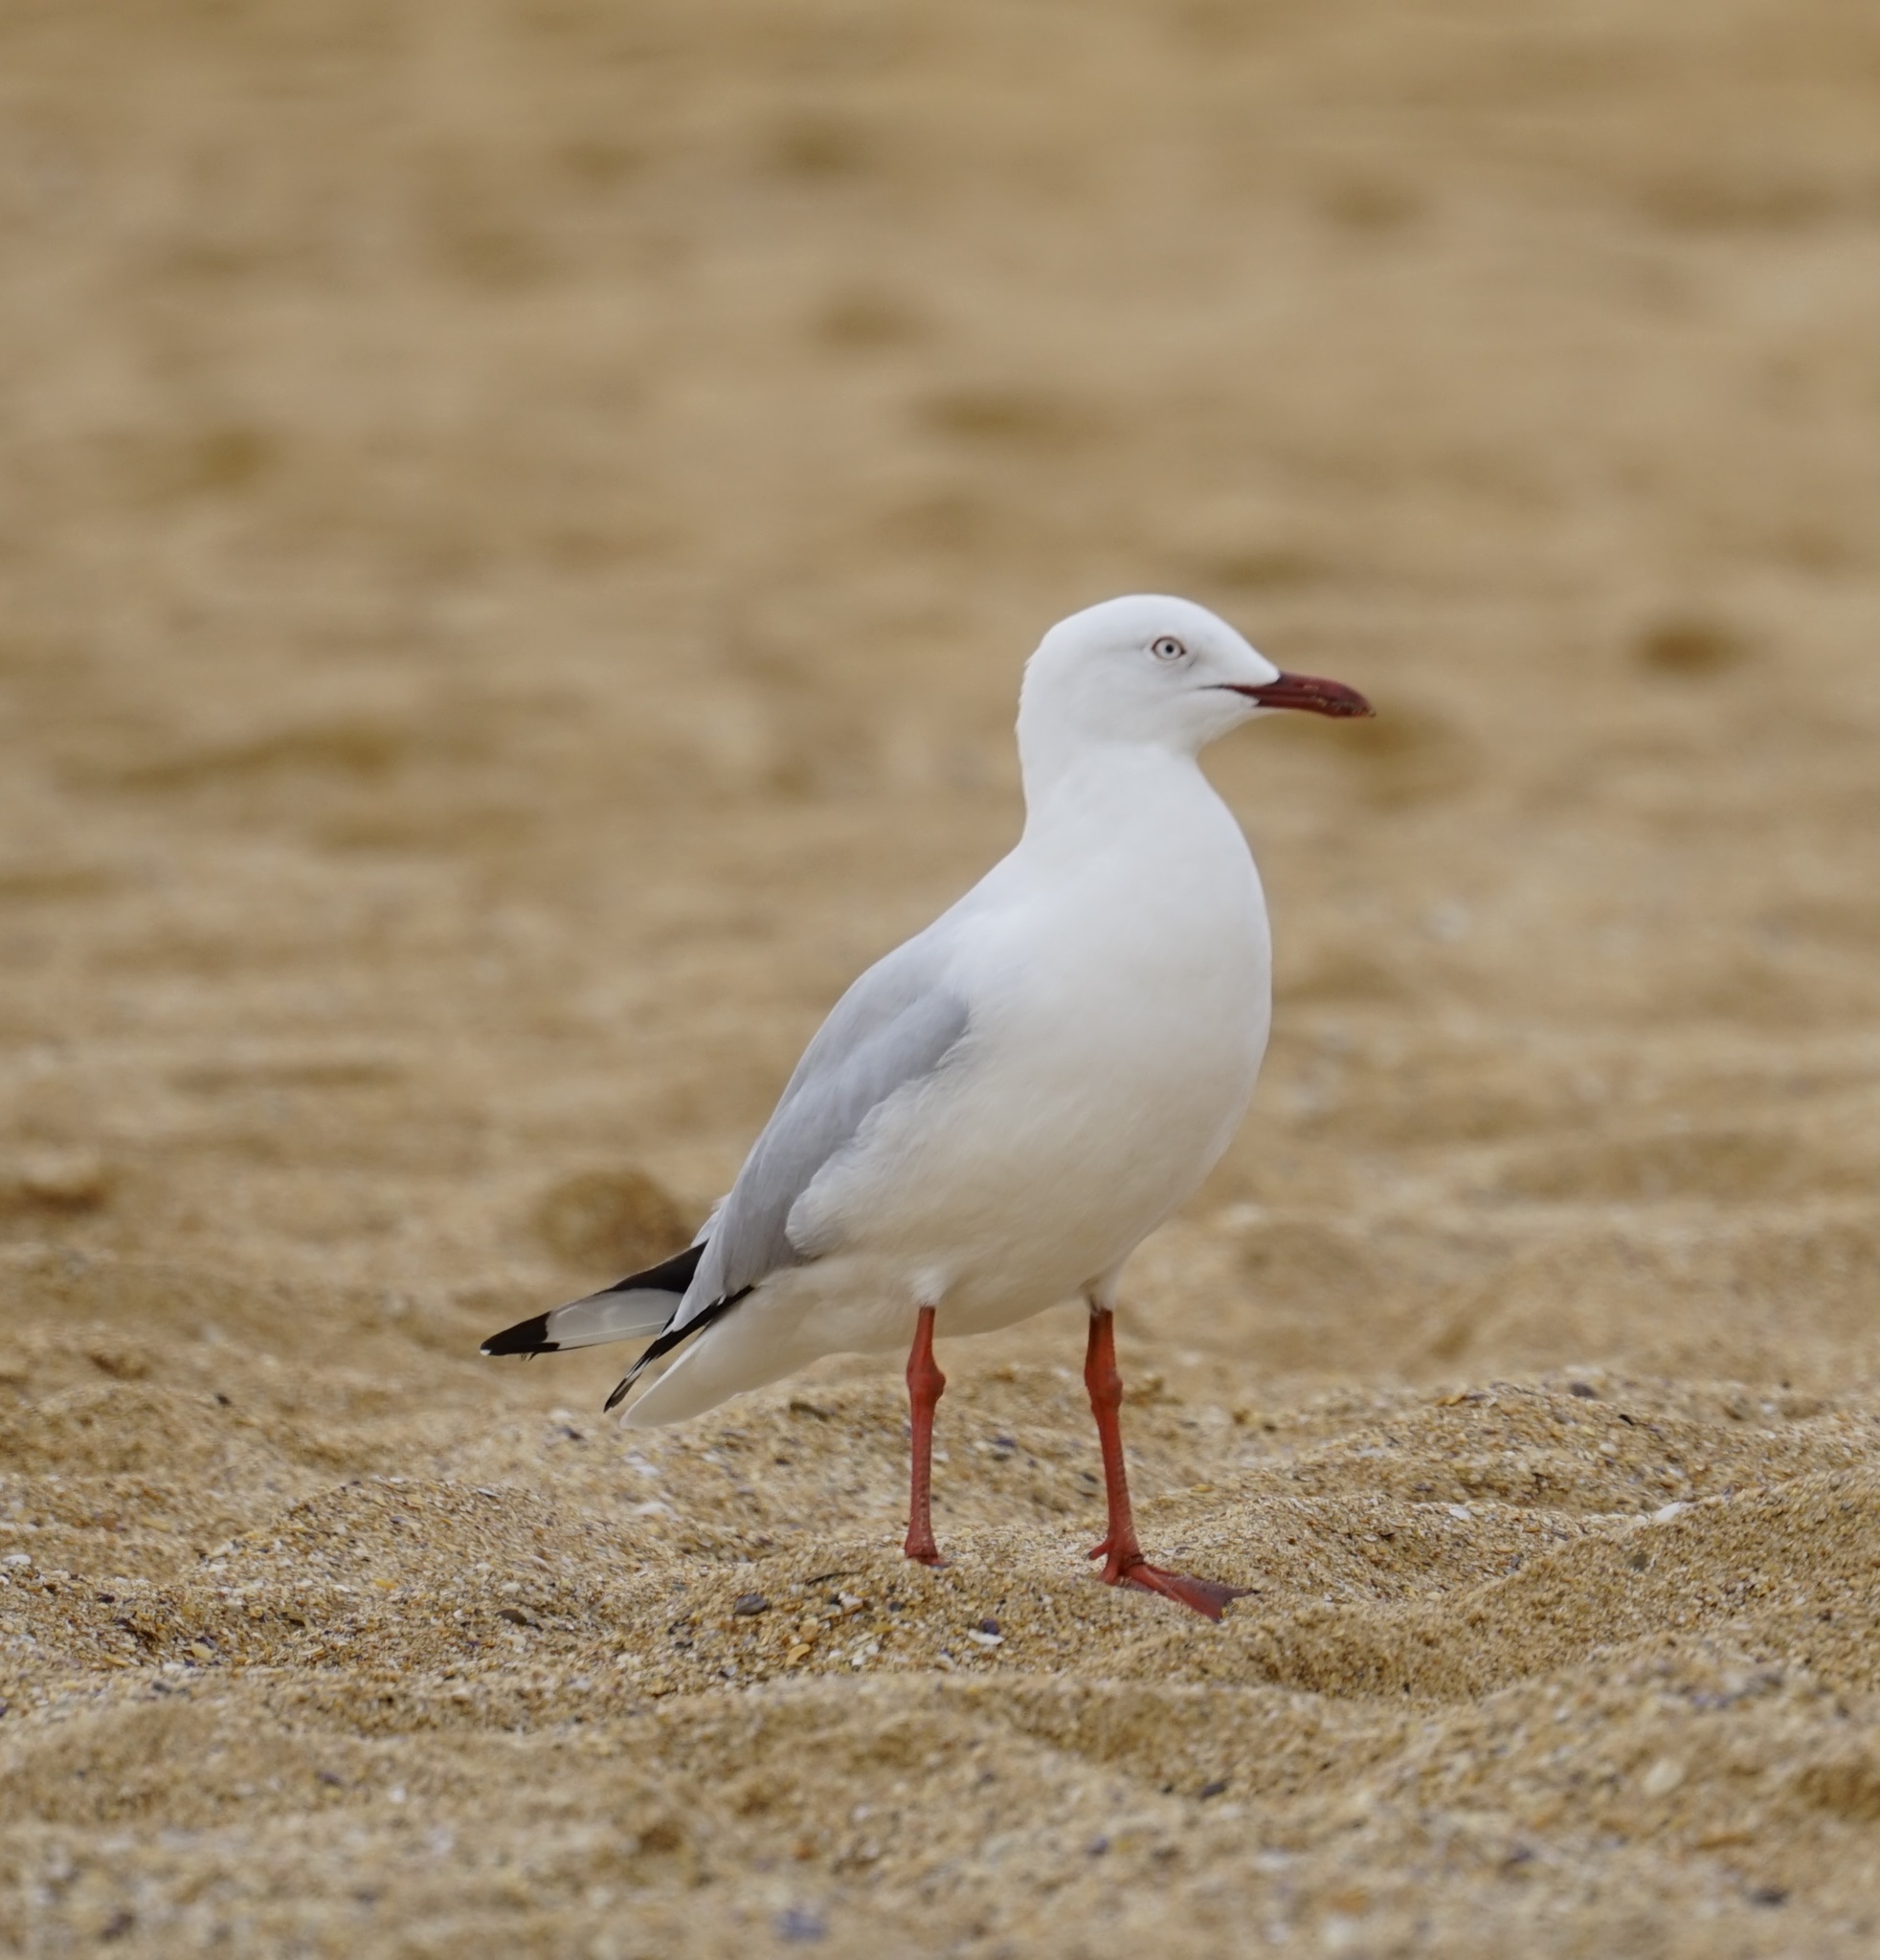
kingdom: Animalia
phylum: Chordata
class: Aves
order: Charadriiformes
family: Laridae
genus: Chroicocephalus
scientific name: Chroicocephalus novaehollandiae
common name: Silver gull
